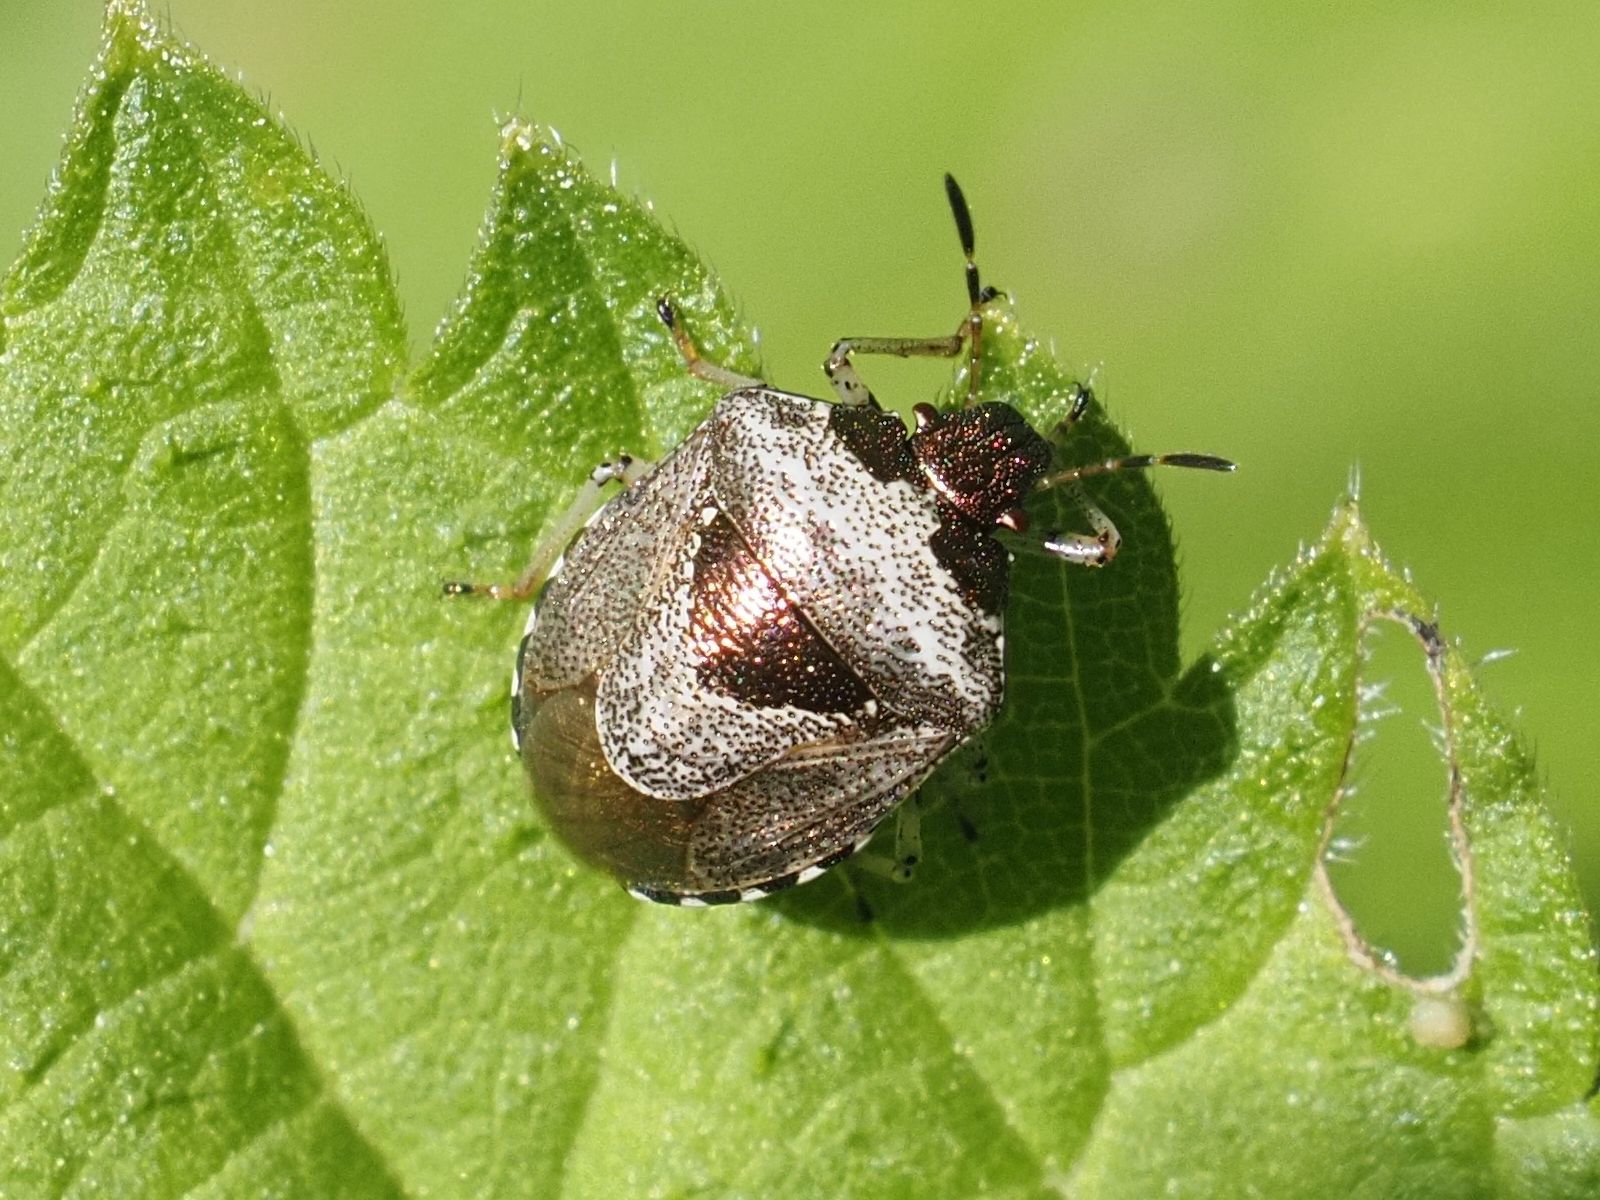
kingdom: Animalia
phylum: Arthropoda
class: Insecta
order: Hemiptera
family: Pentatomidae
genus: Eysarcoris
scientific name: Eysarcoris venustissimus
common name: Woundwort shieldbug
